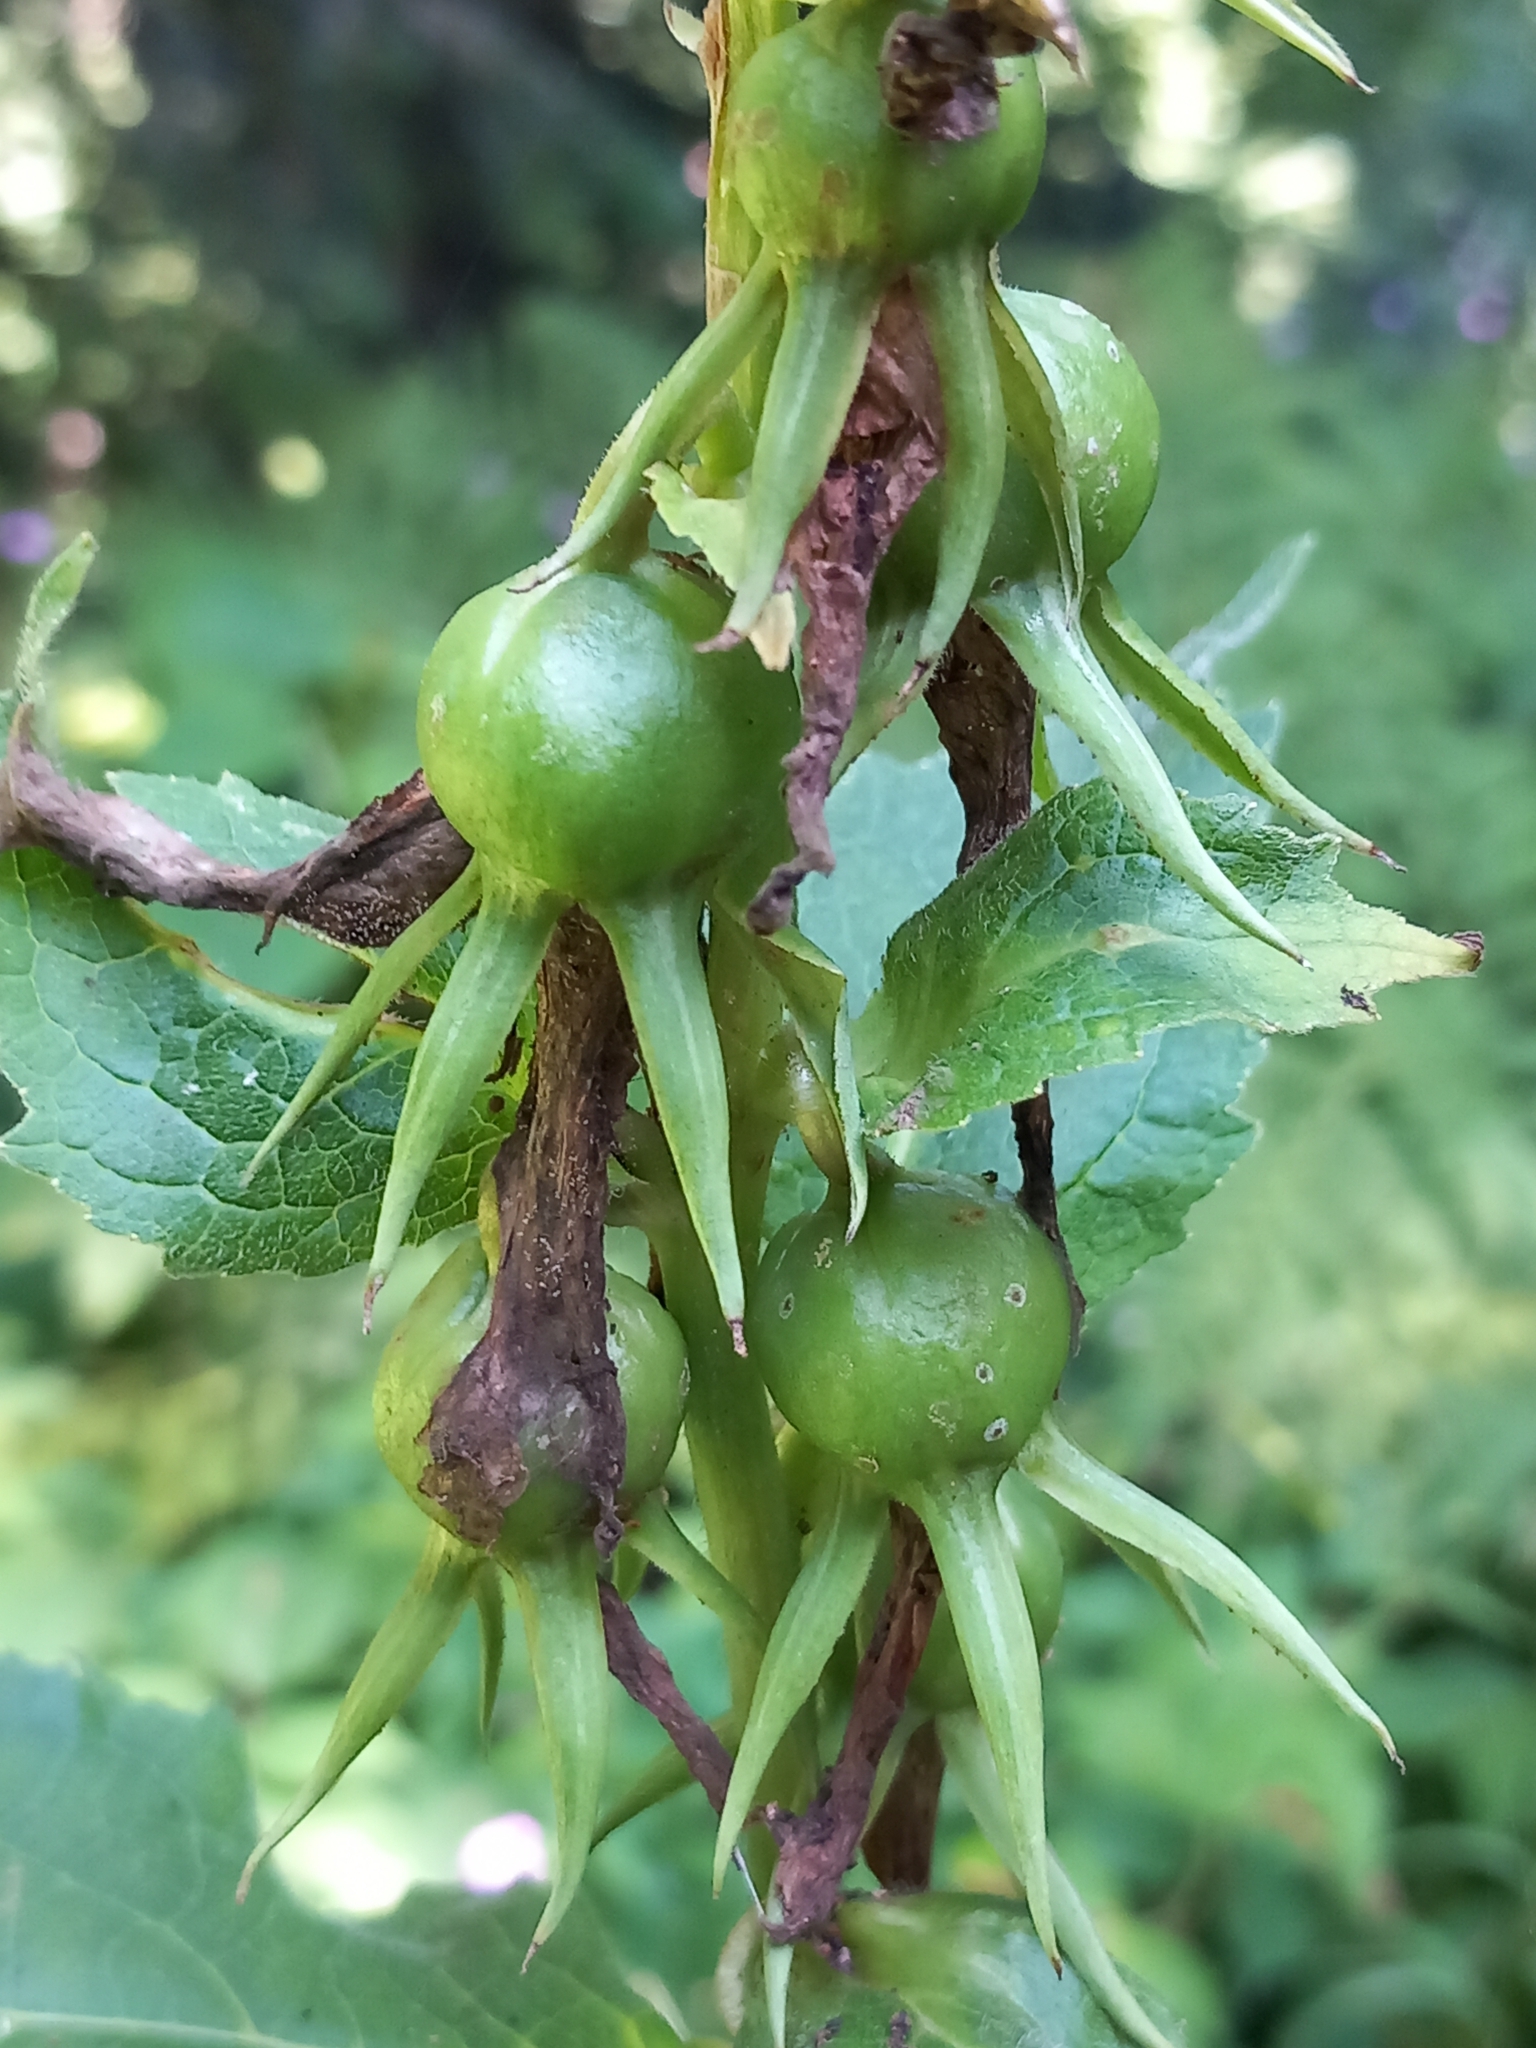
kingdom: Plantae
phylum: Tracheophyta
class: Magnoliopsida
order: Asterales
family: Campanulaceae
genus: Campanula
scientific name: Campanula latifolia
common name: Giant bellflower
